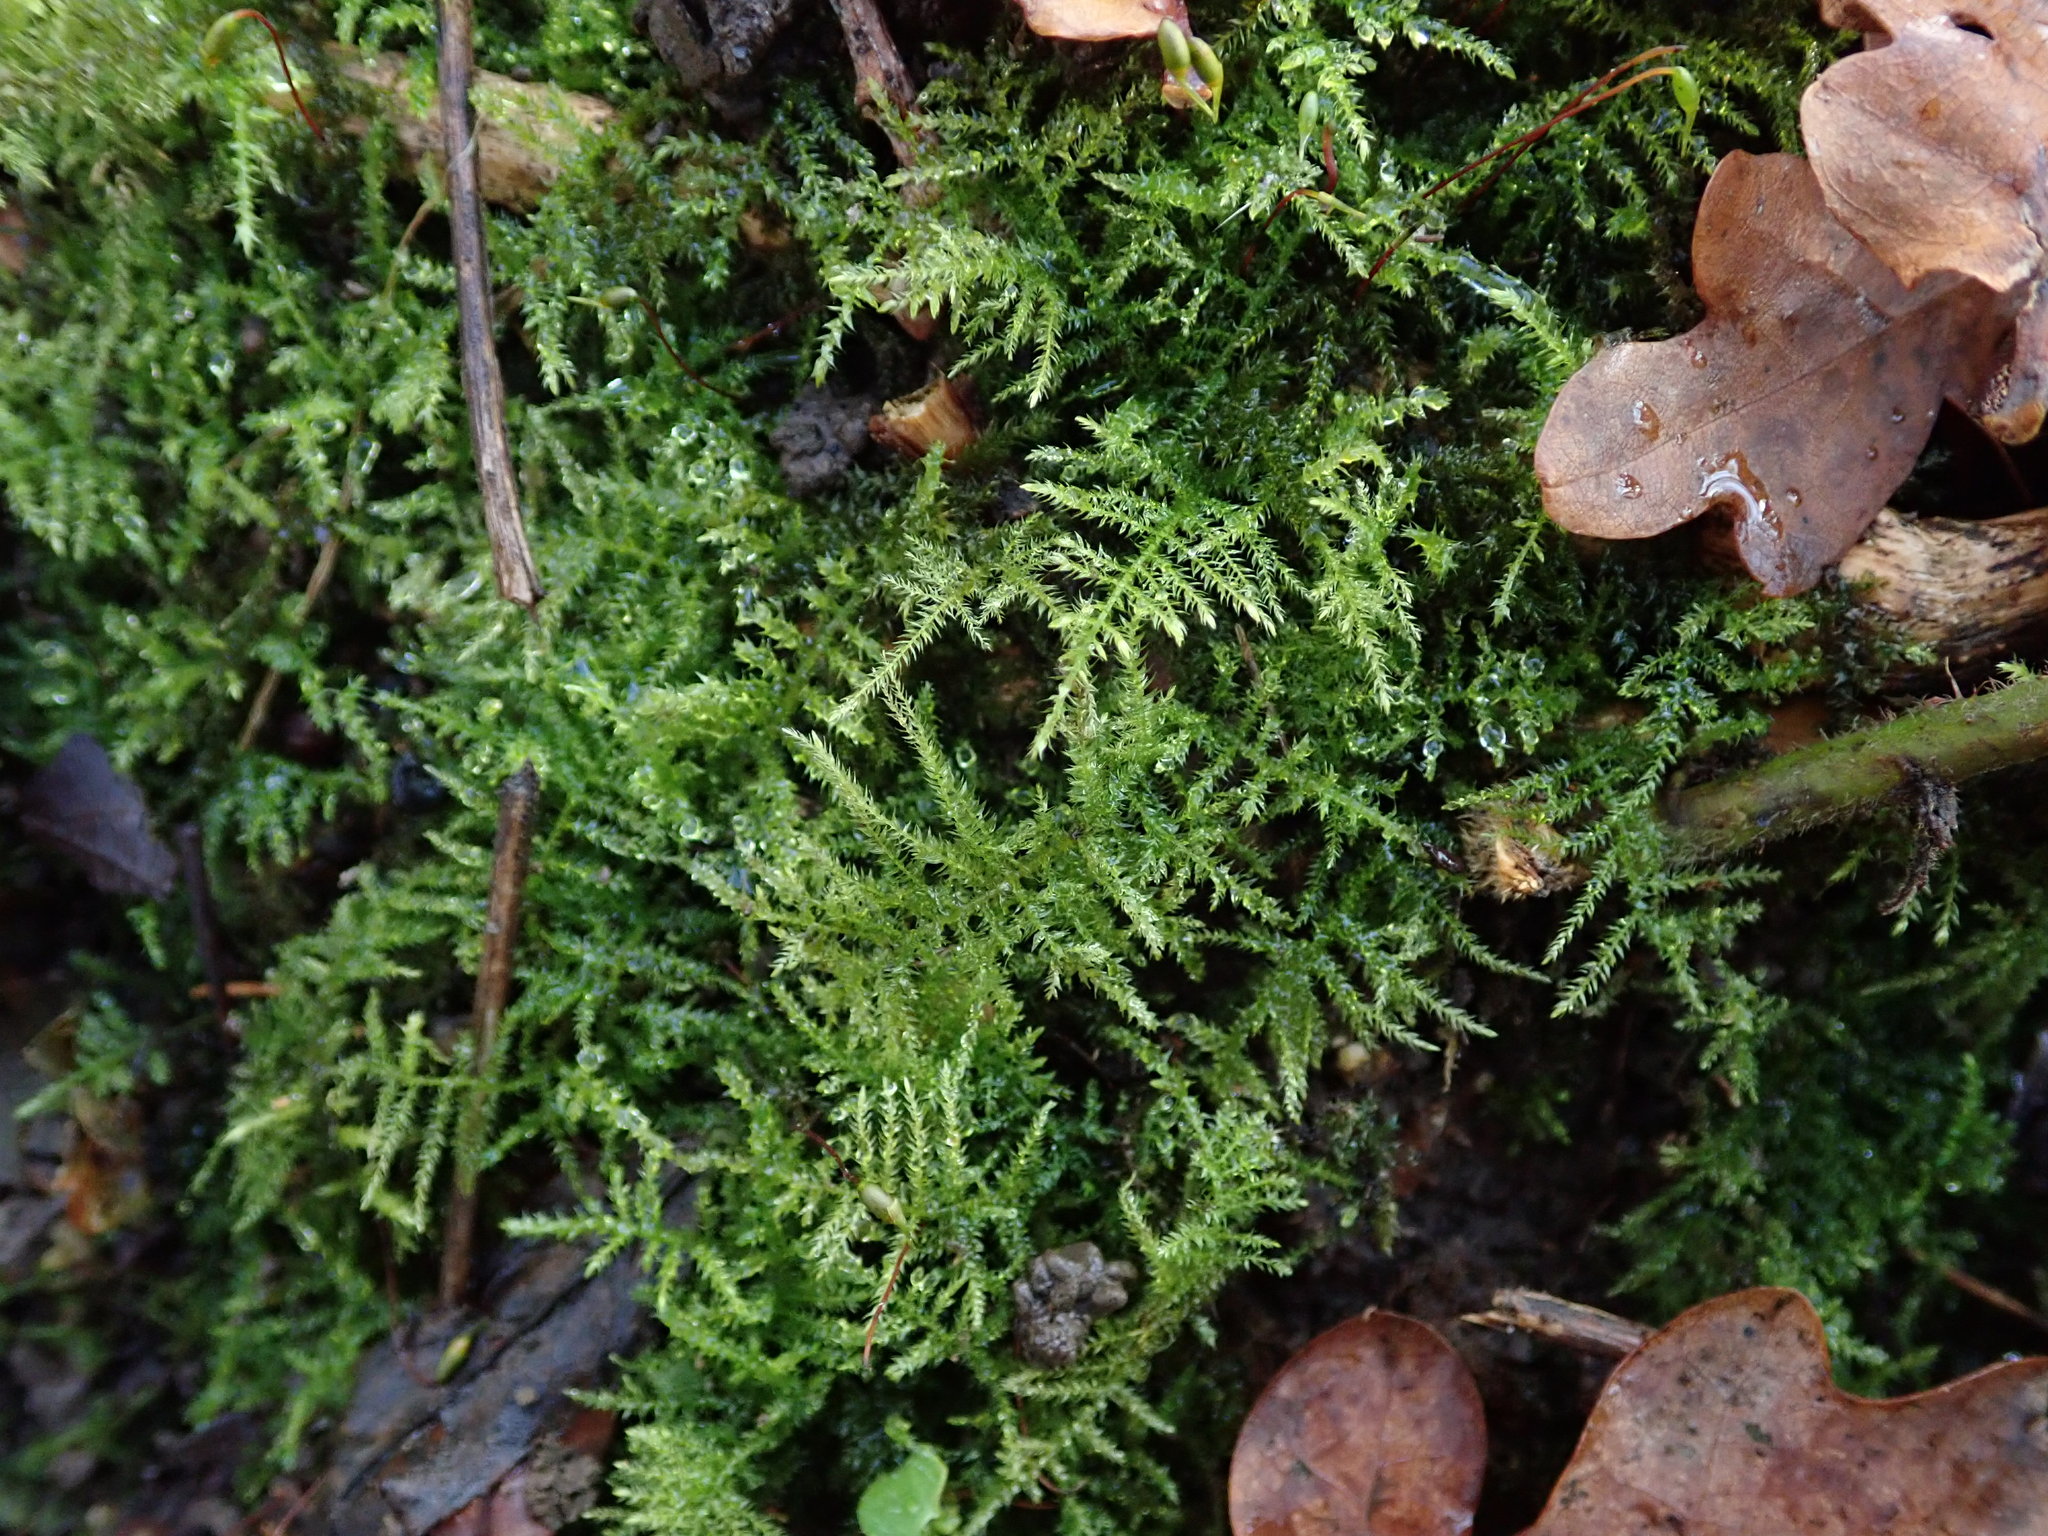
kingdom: Plantae
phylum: Bryophyta
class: Bryopsida
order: Hypnales
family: Brachytheciaceae
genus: Kindbergia
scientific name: Kindbergia praelonga
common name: Slender beaked moss
